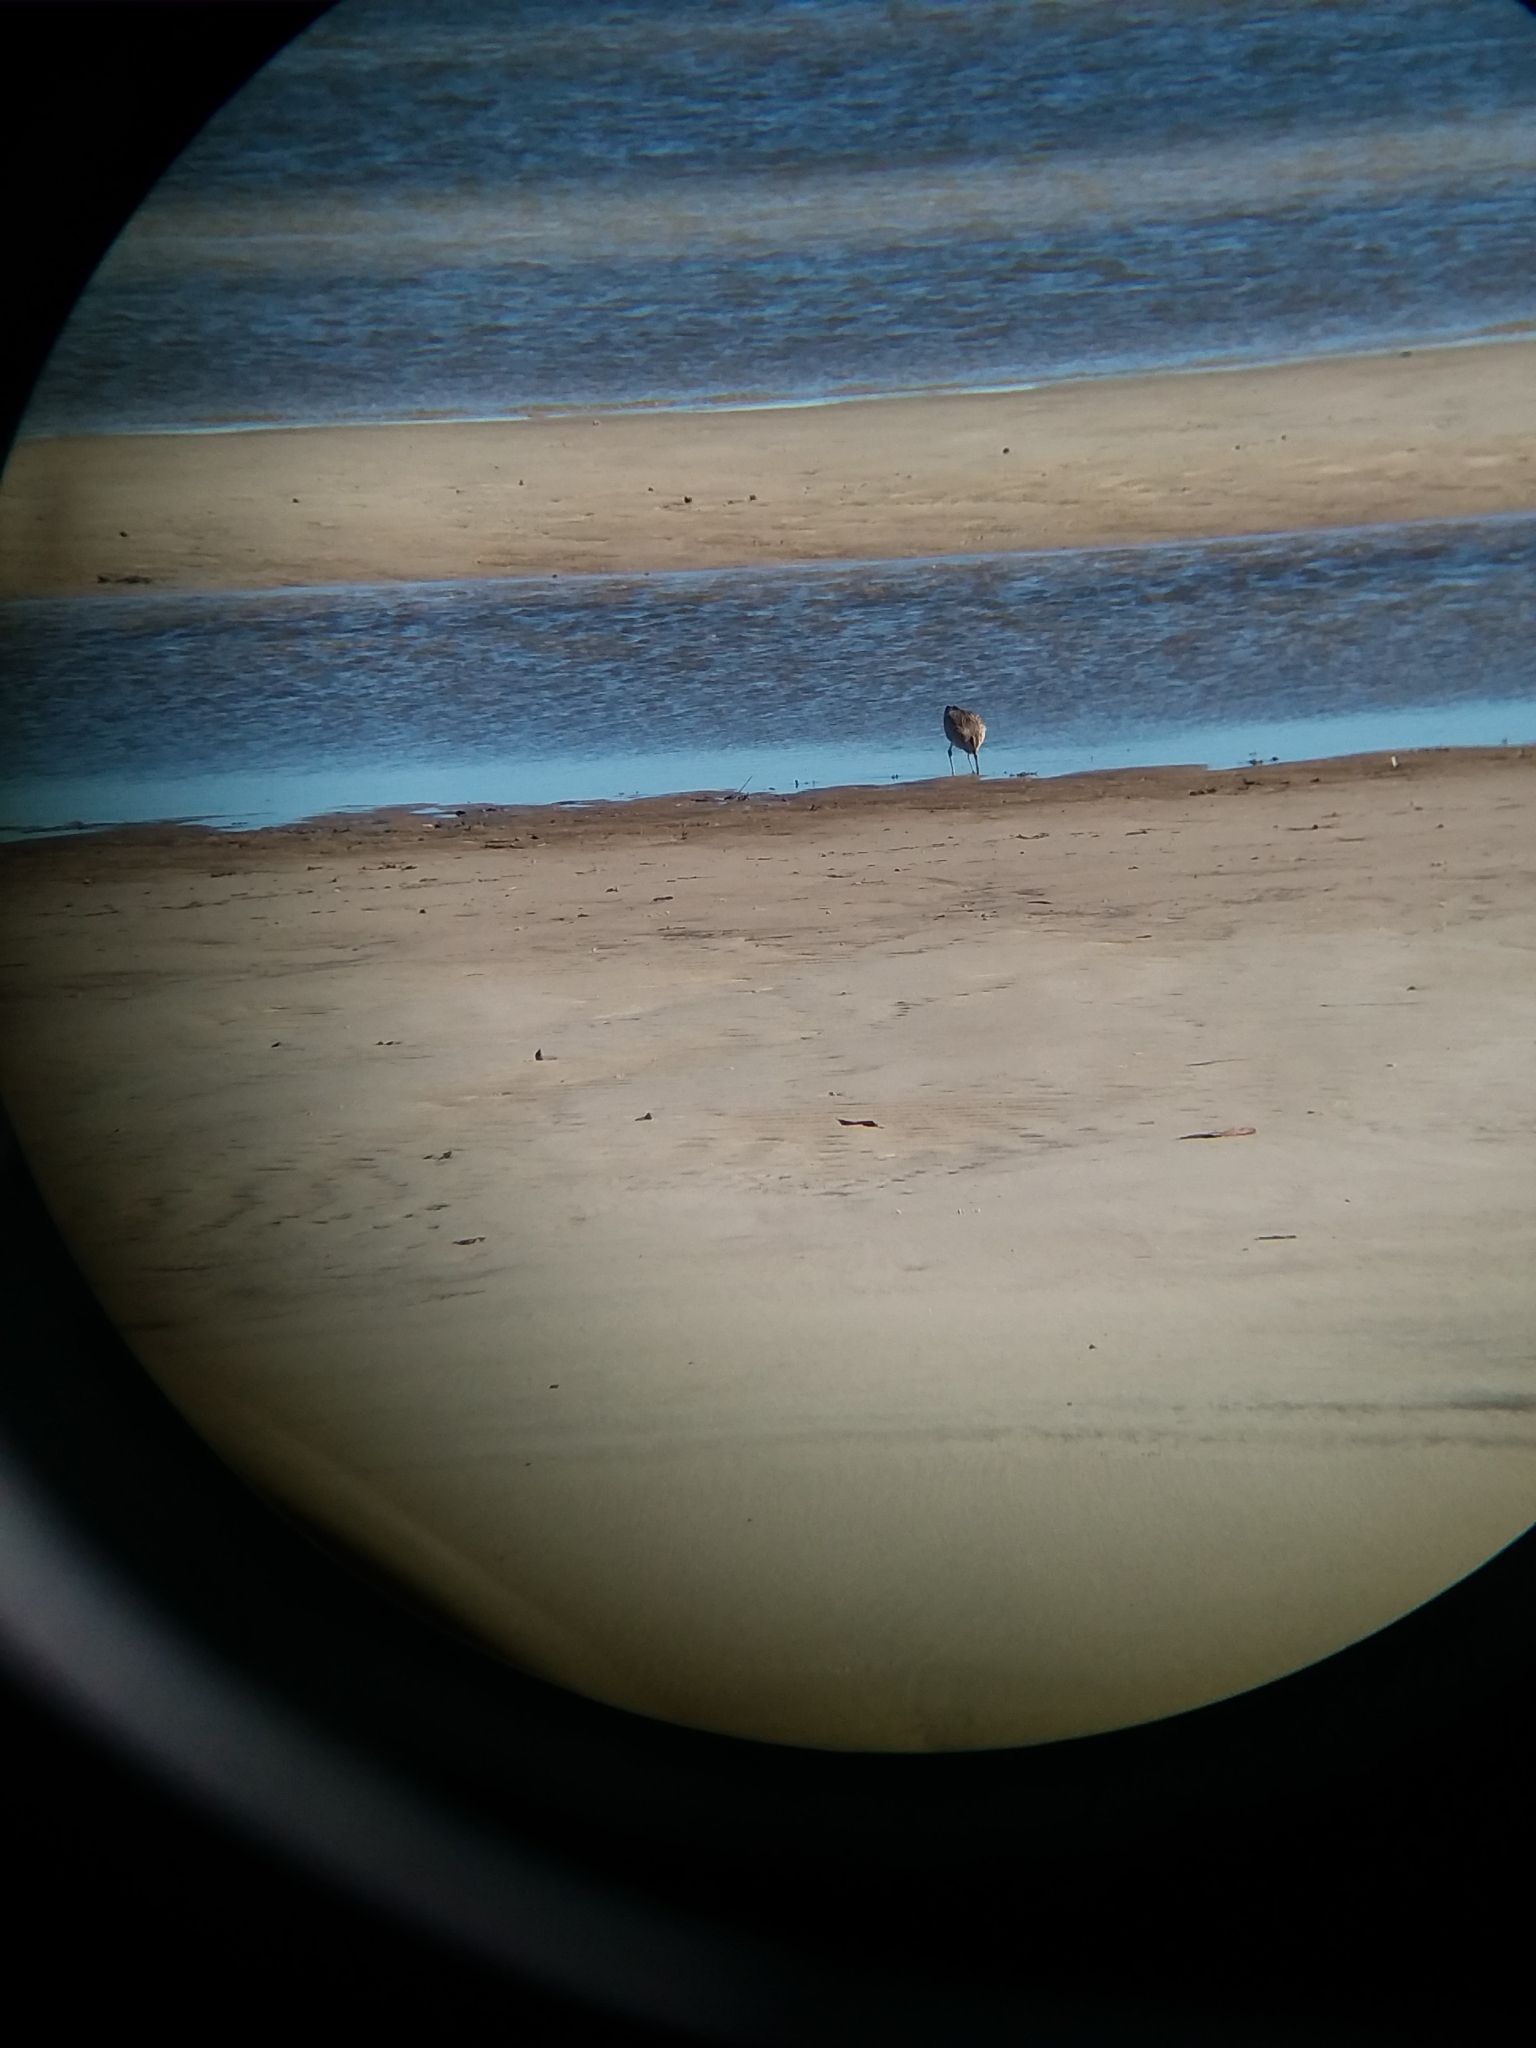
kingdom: Animalia
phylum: Chordata
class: Aves
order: Charadriiformes
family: Scolopacidae
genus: Numenius
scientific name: Numenius phaeopus
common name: Whimbrel
